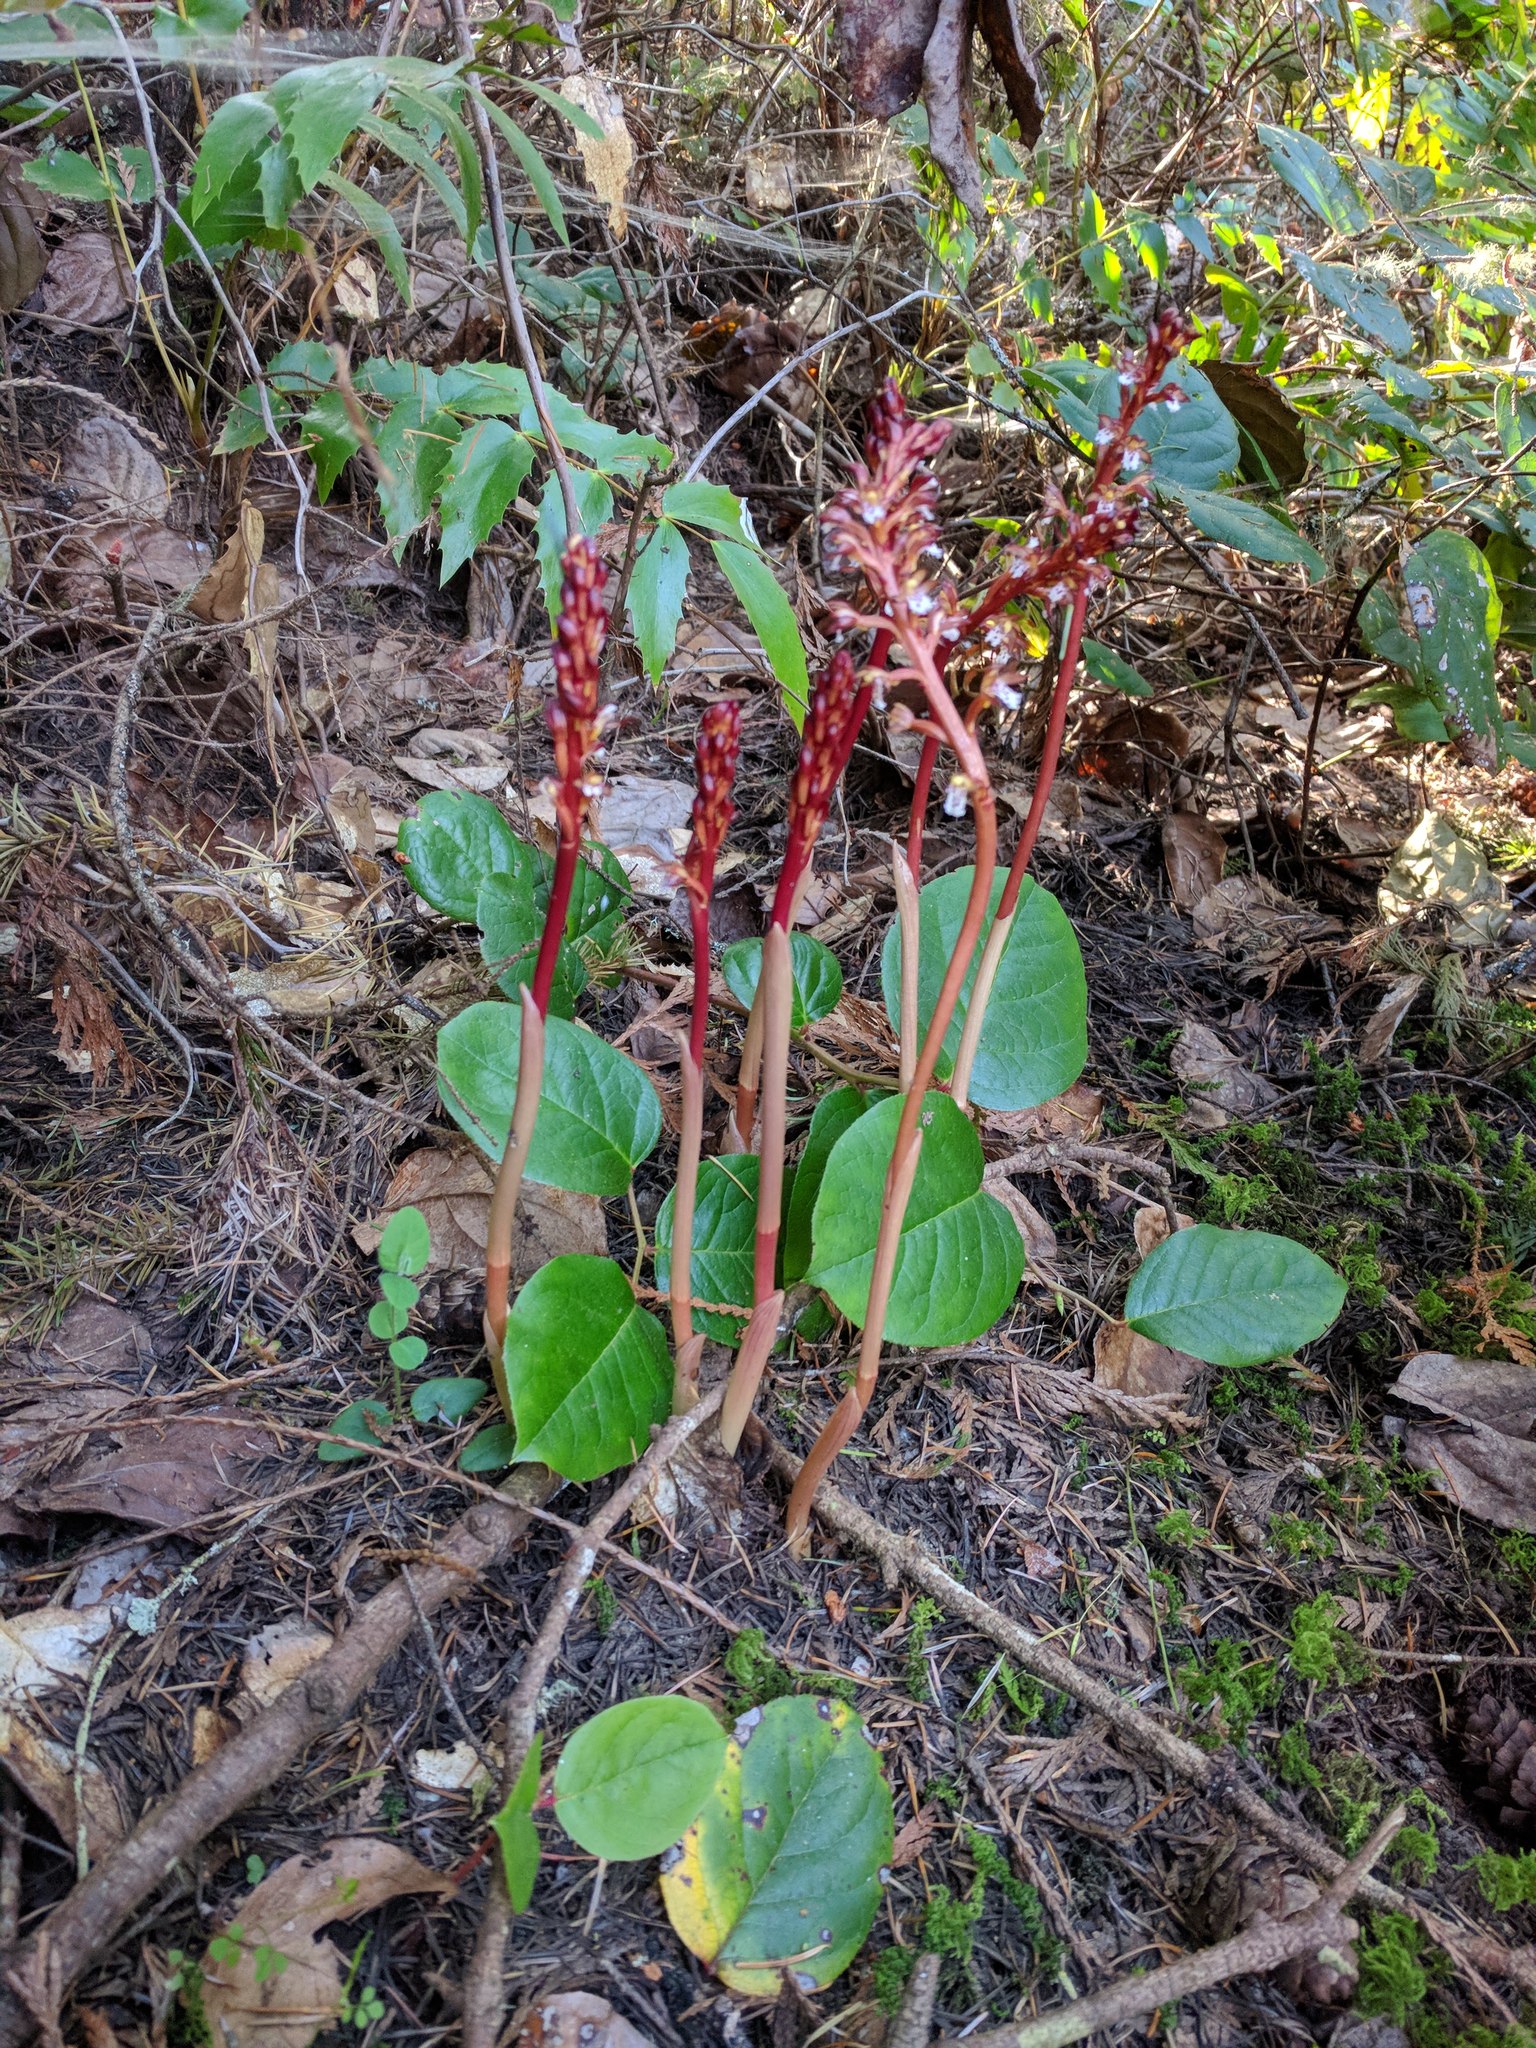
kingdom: Plantae
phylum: Tracheophyta
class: Liliopsida
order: Asparagales
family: Orchidaceae
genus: Corallorhiza
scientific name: Corallorhiza maculata
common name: Spotted coralroot
